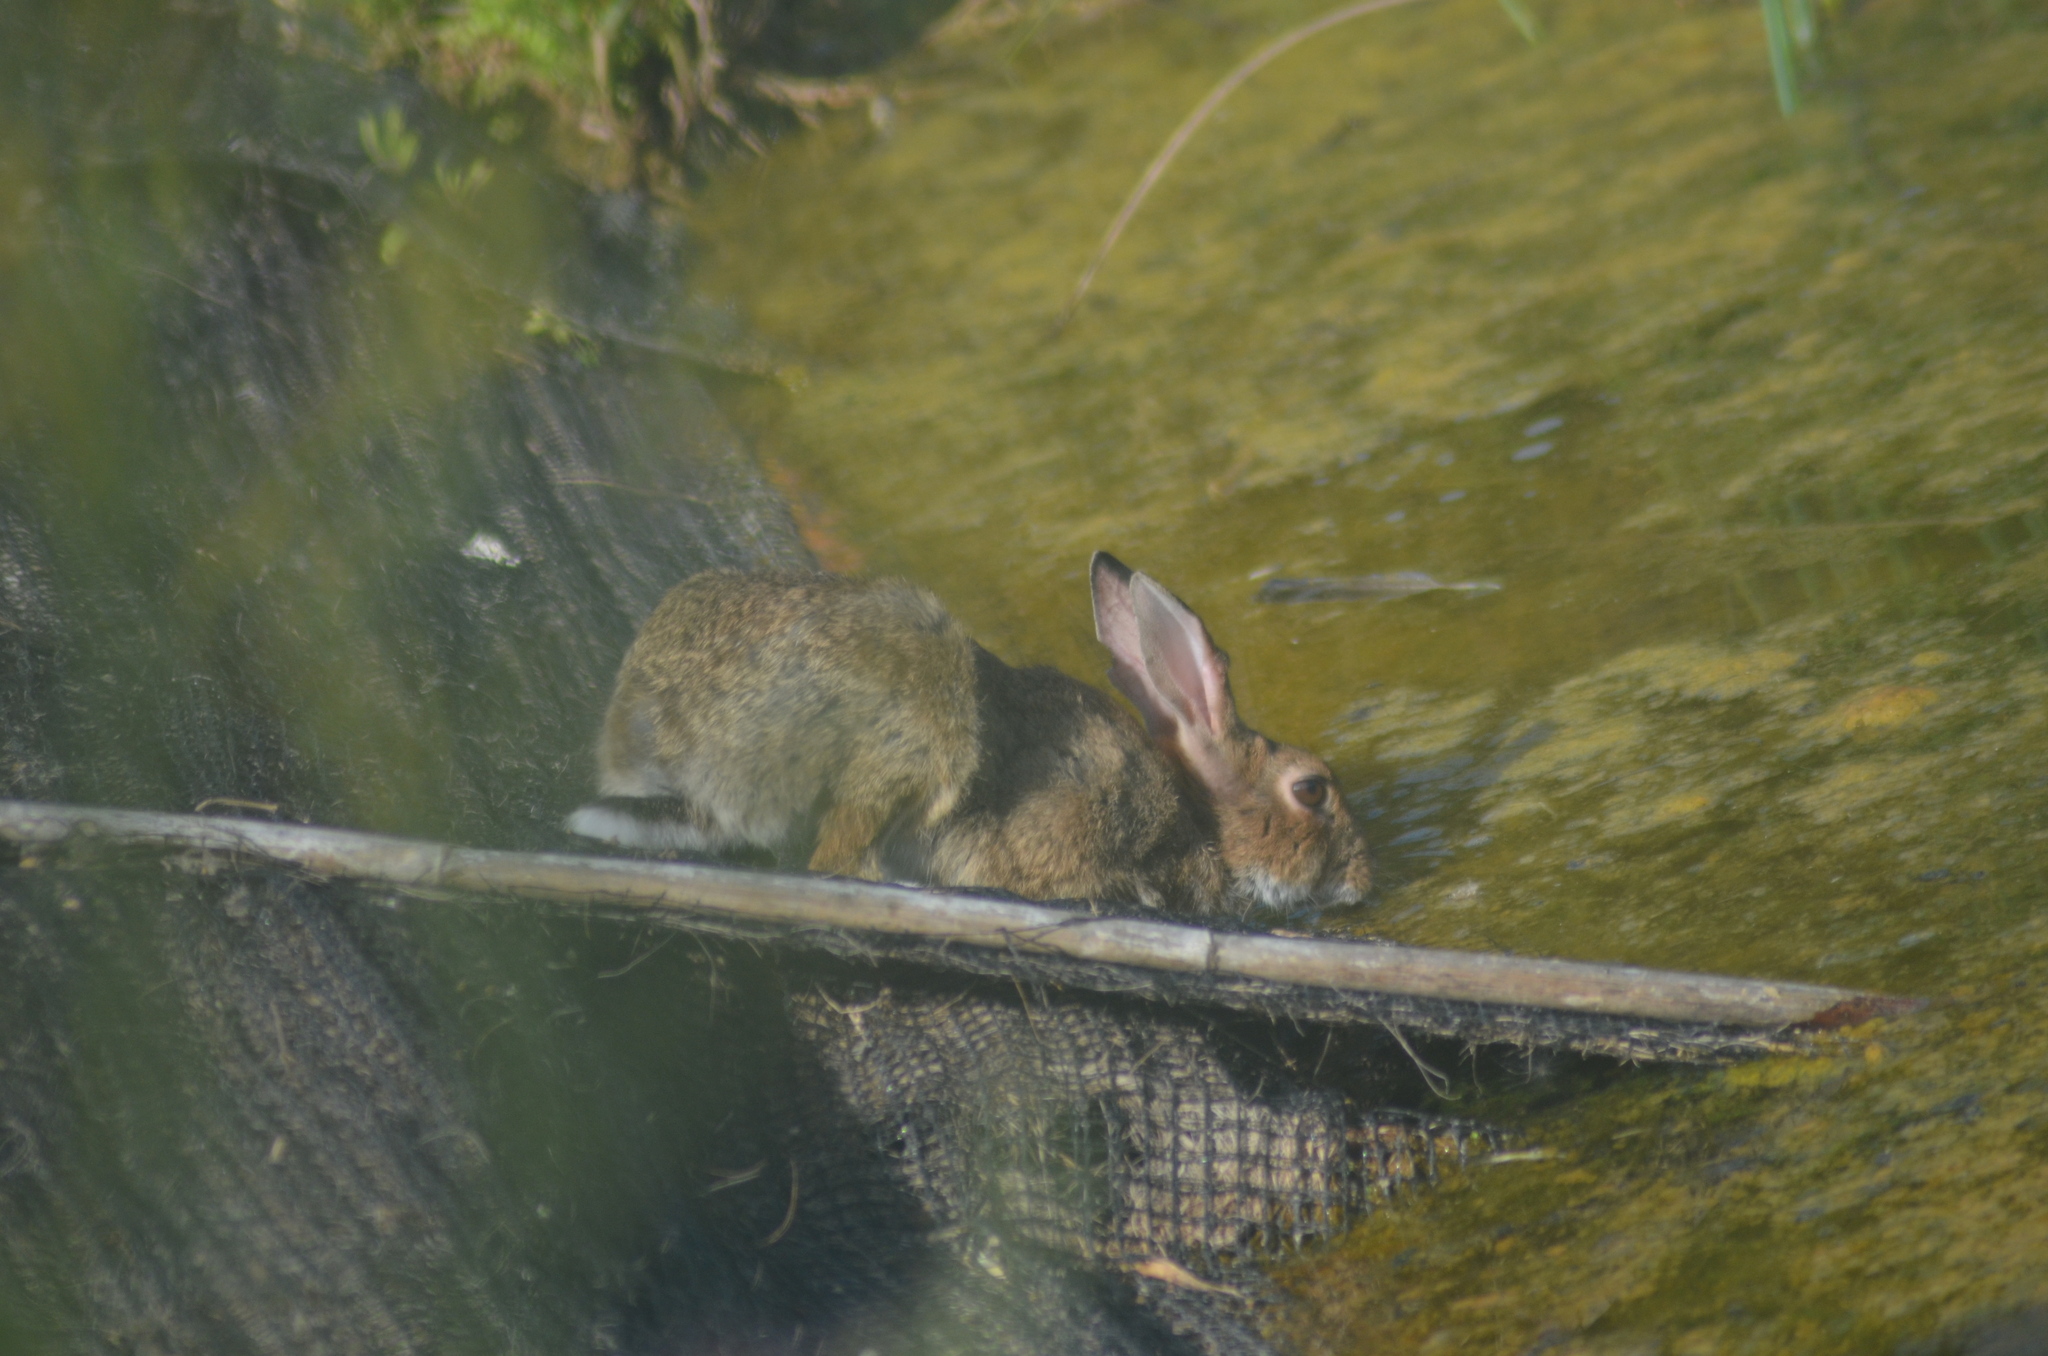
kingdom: Animalia
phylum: Chordata
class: Mammalia
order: Lagomorpha
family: Leporidae
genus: Oryctolagus
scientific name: Oryctolagus cuniculus
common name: European rabbit
